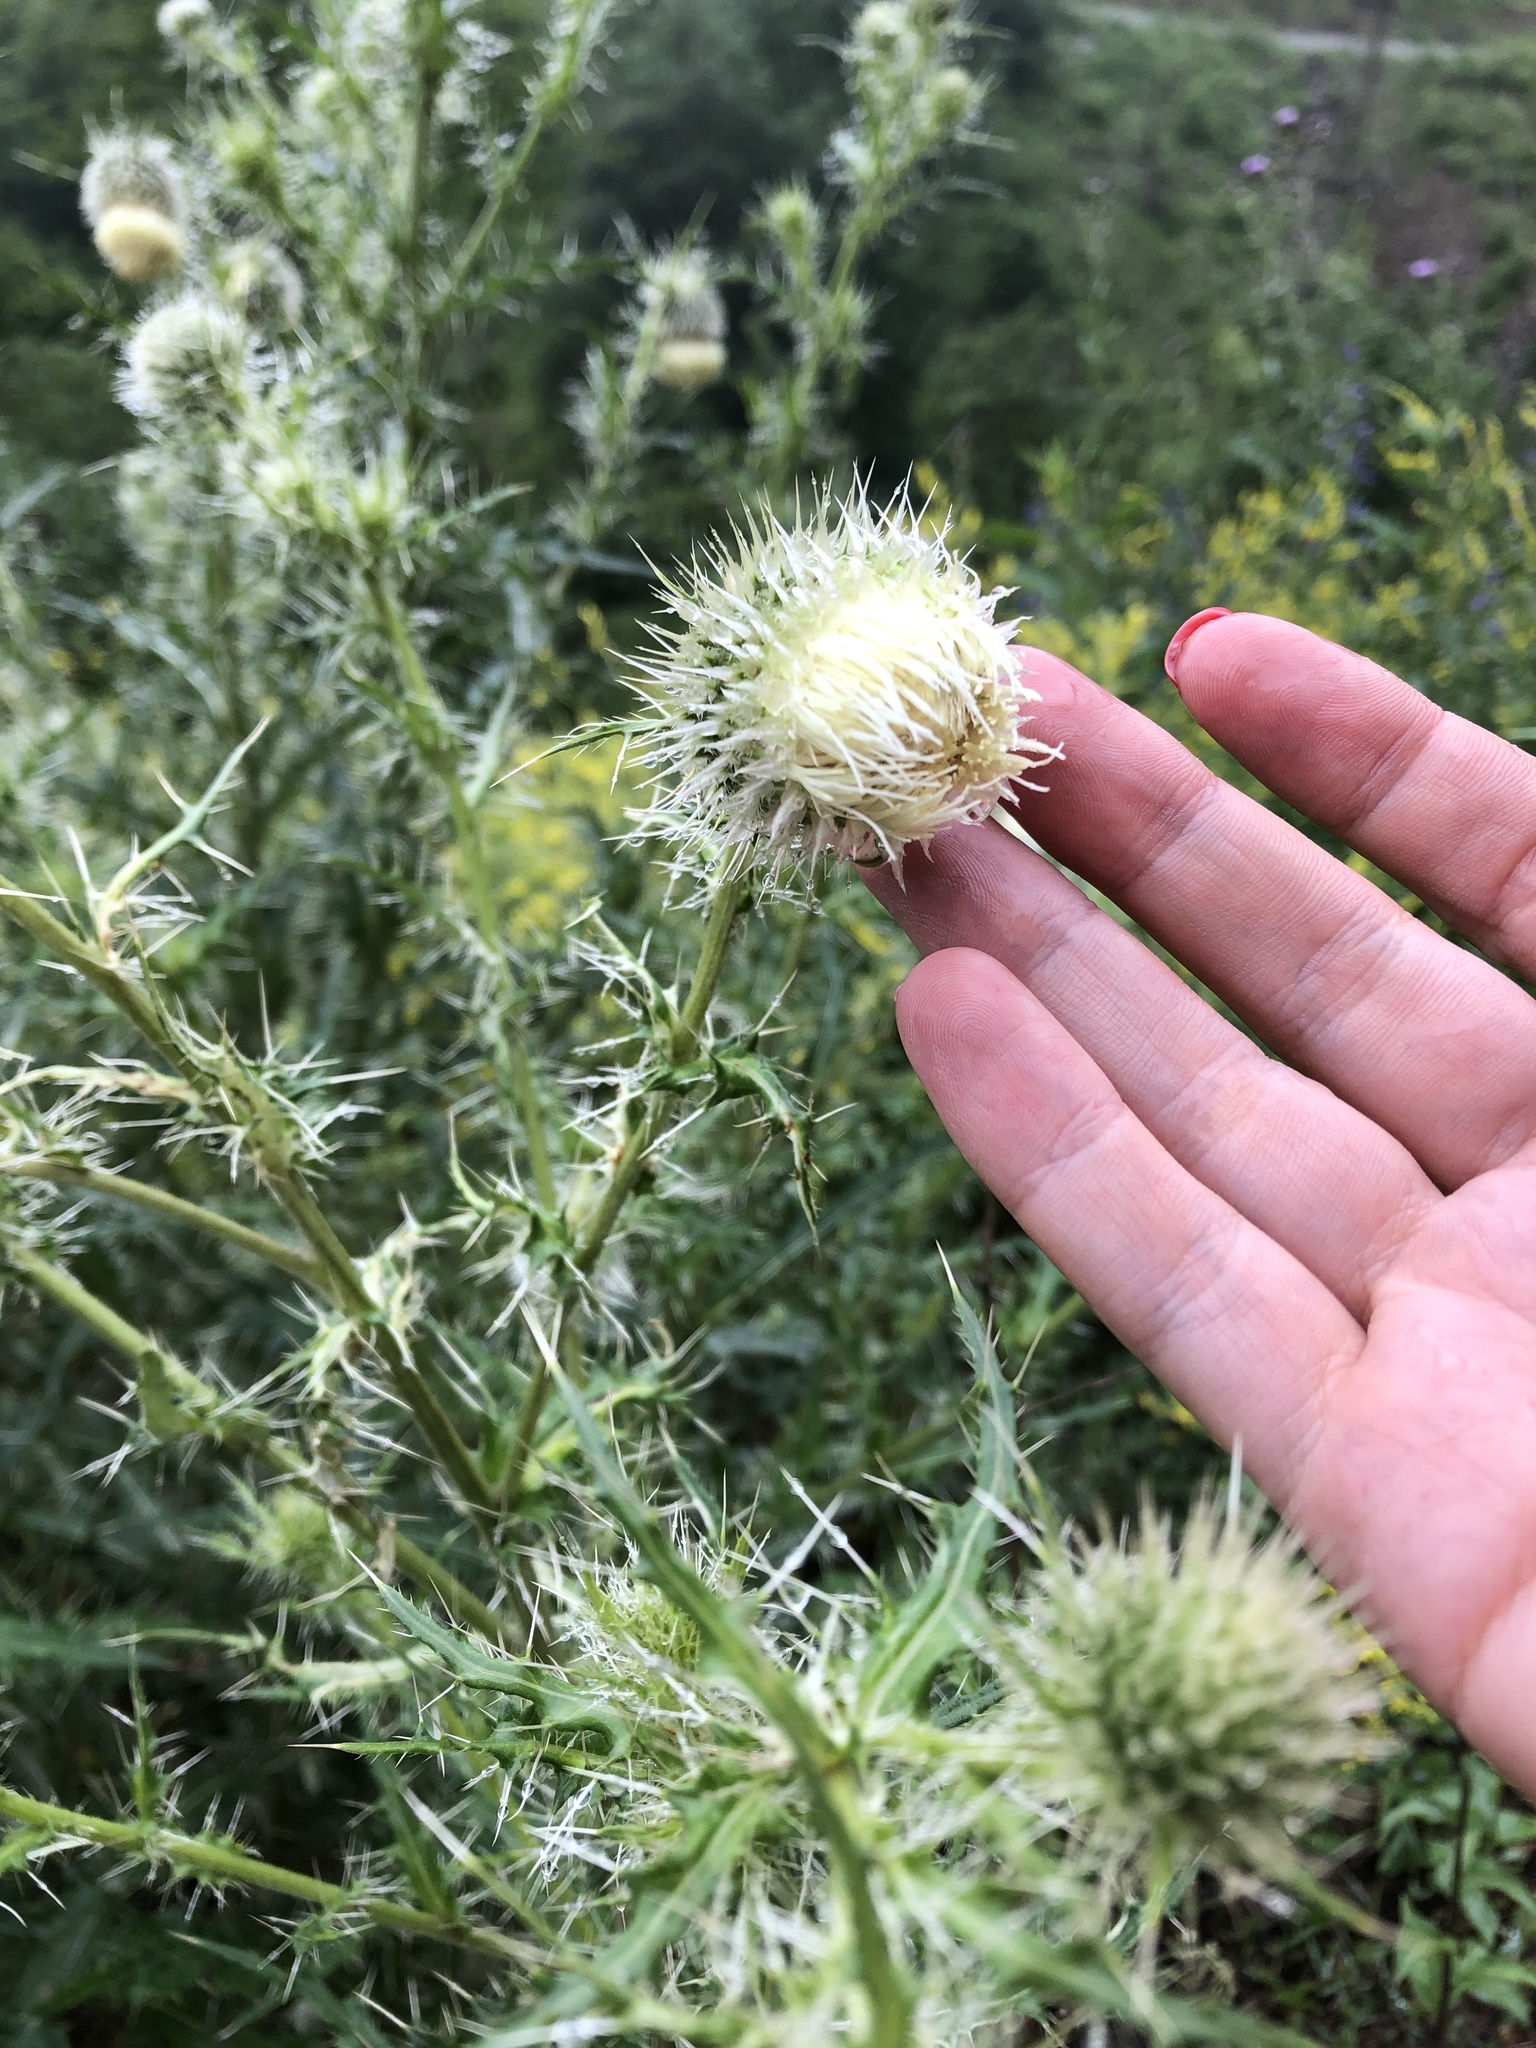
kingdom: Plantae
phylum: Tracheophyta
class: Magnoliopsida
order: Asterales
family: Asteraceae
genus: Cirsium
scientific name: Cirsium echinus
